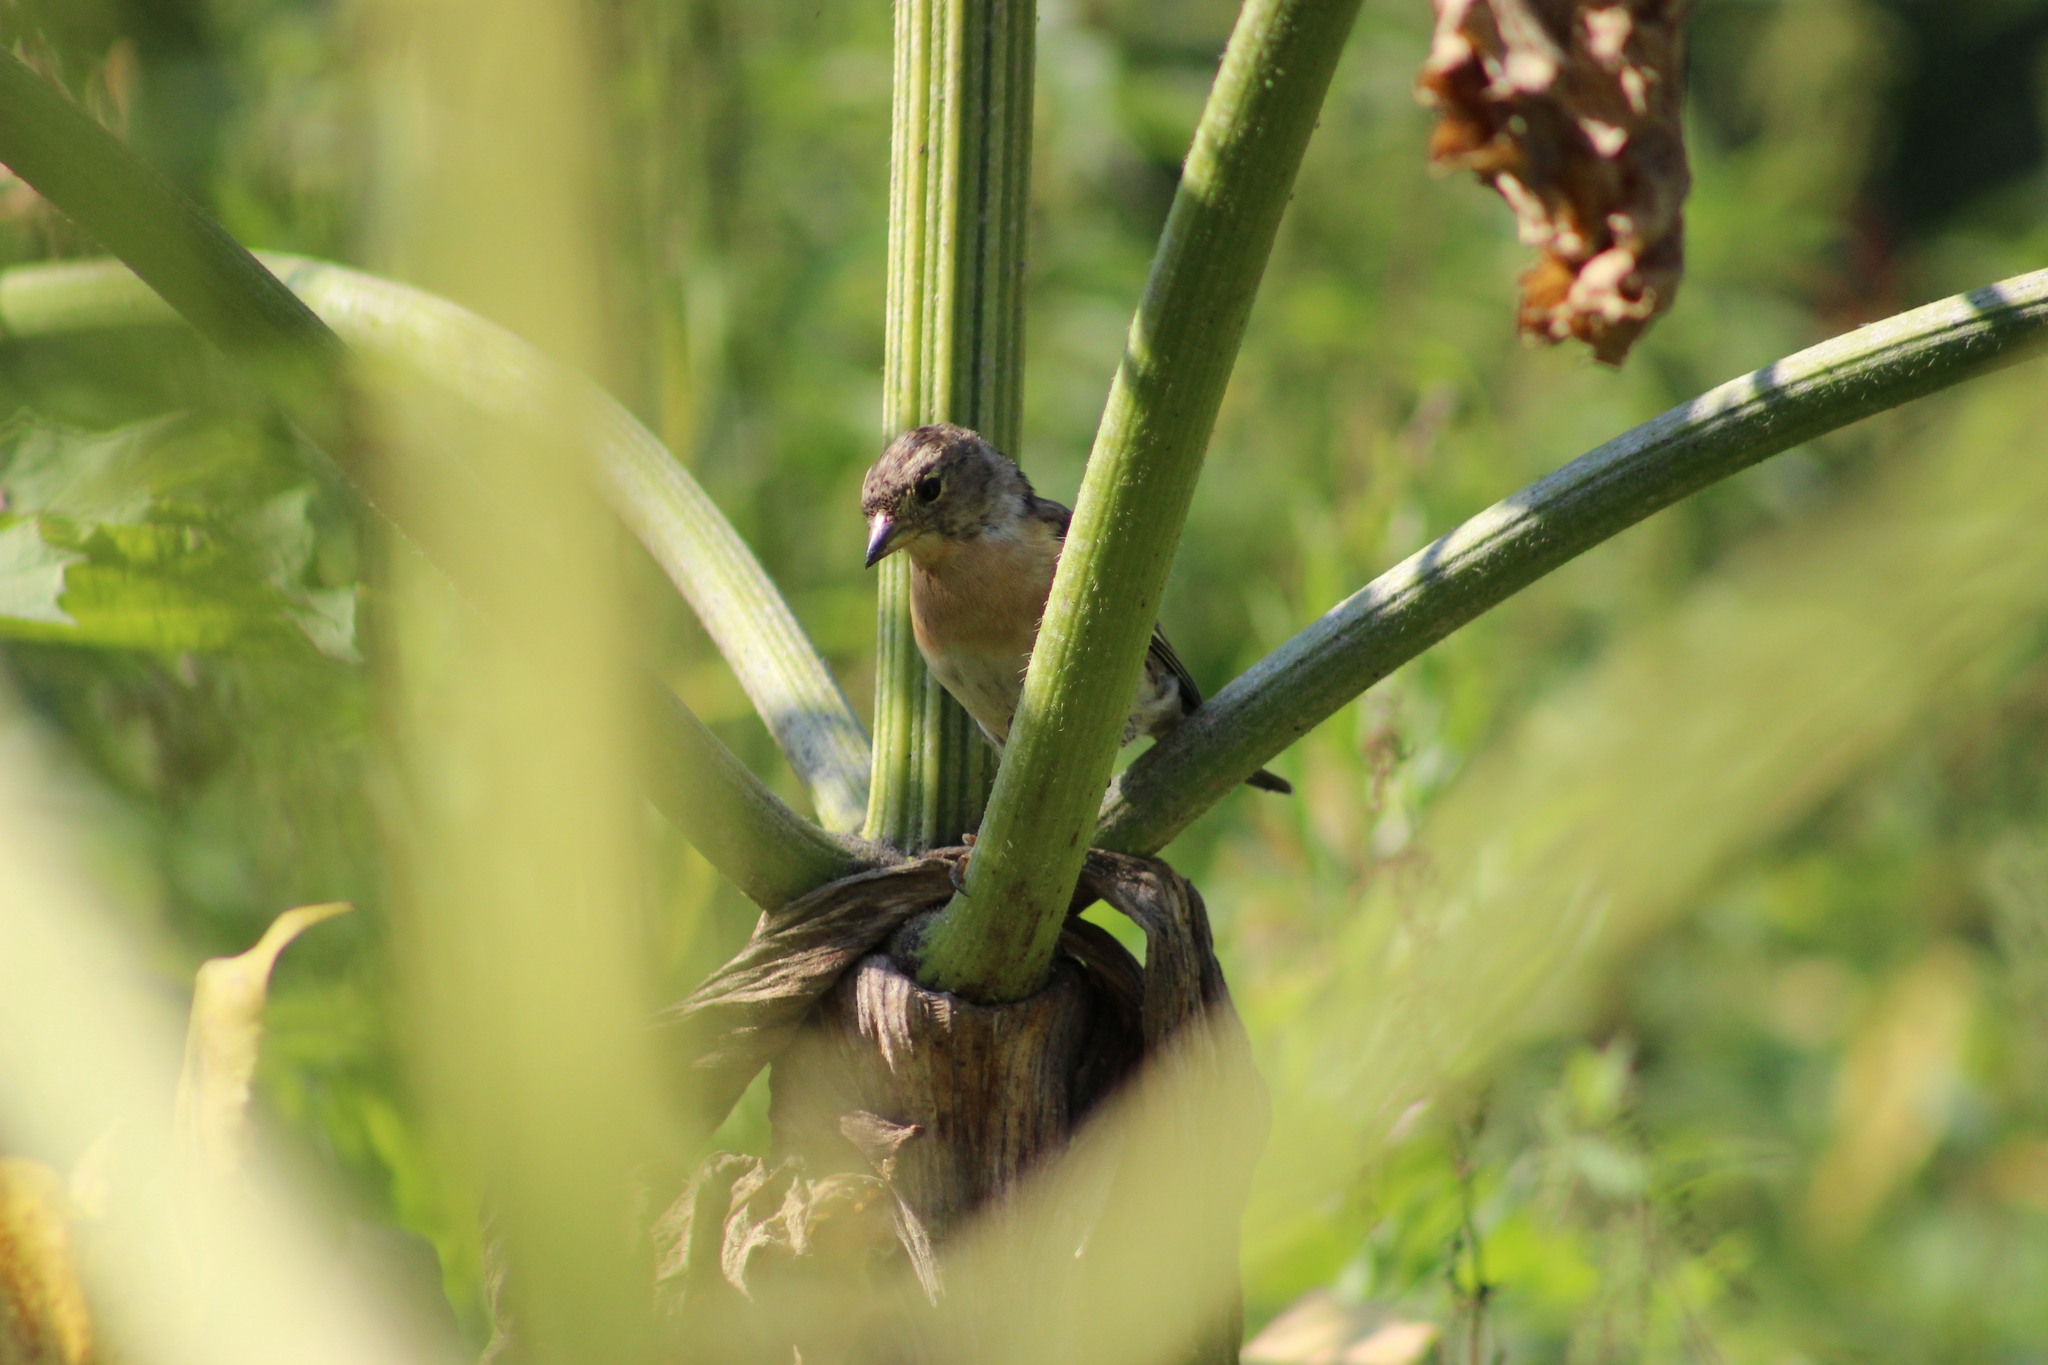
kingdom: Animalia
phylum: Chordata
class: Aves
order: Passeriformes
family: Fringillidae
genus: Fringilla
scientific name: Fringilla montifringilla
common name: Brambling
